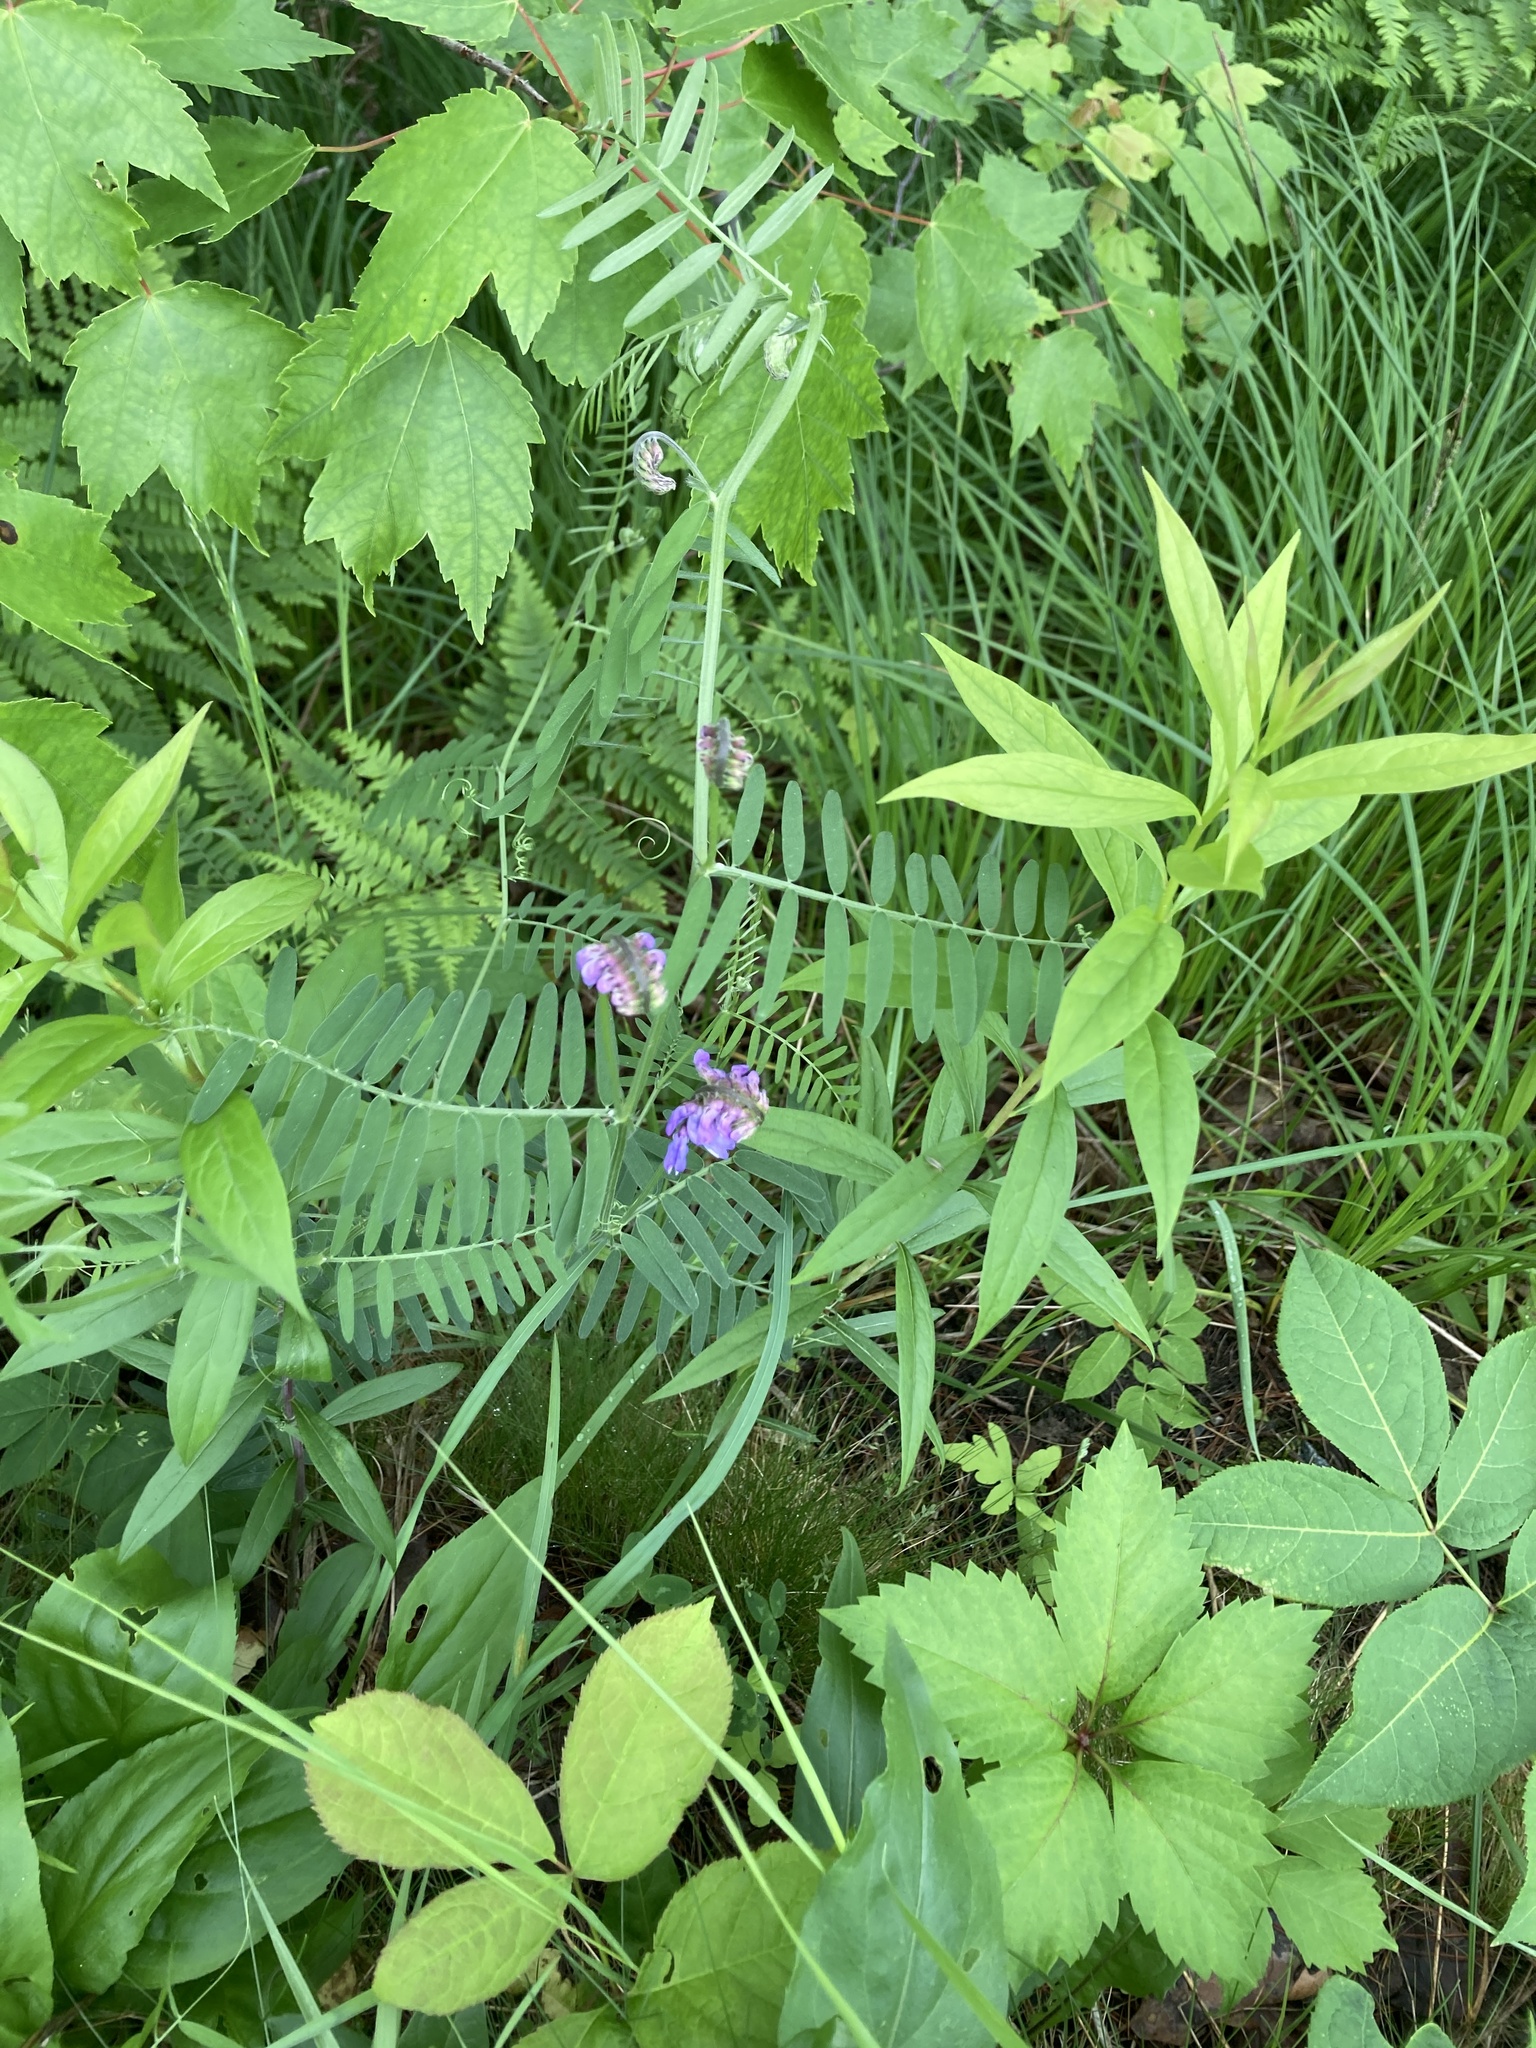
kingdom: Plantae
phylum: Tracheophyta
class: Magnoliopsida
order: Fabales
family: Fabaceae
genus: Vicia
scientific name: Vicia cracca
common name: Bird vetch
